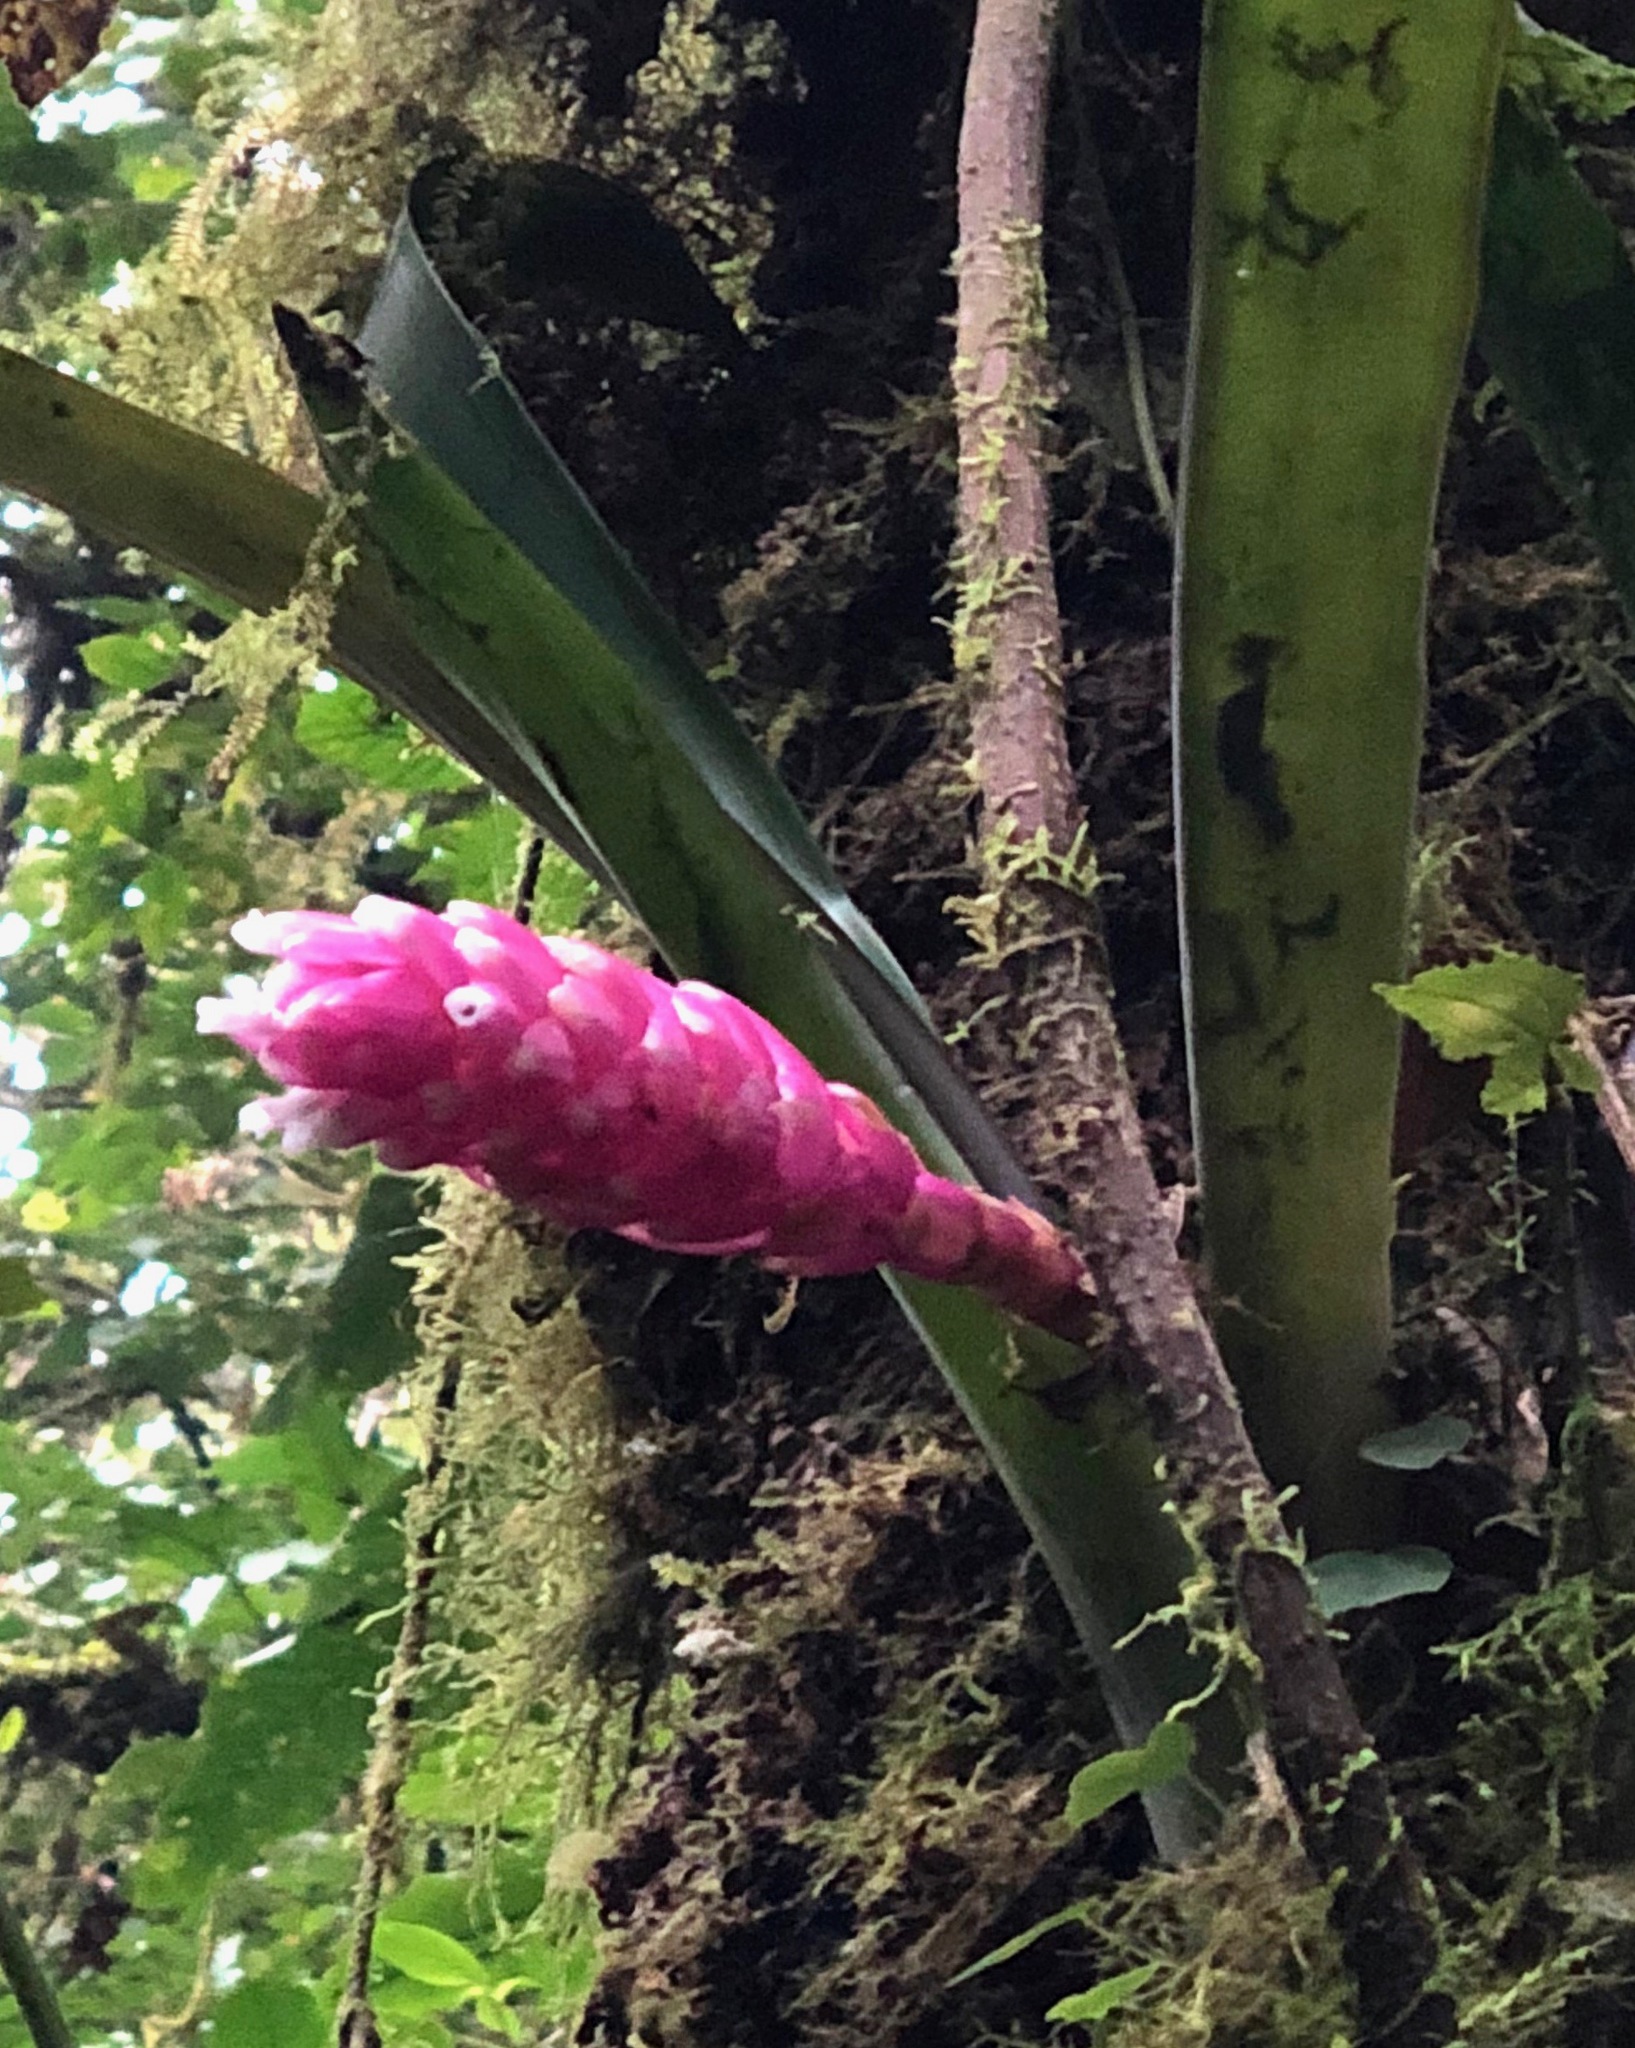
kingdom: Plantae
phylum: Tracheophyta
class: Liliopsida
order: Poales
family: Bromeliaceae
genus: Guzmania
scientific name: Guzmania remyi
